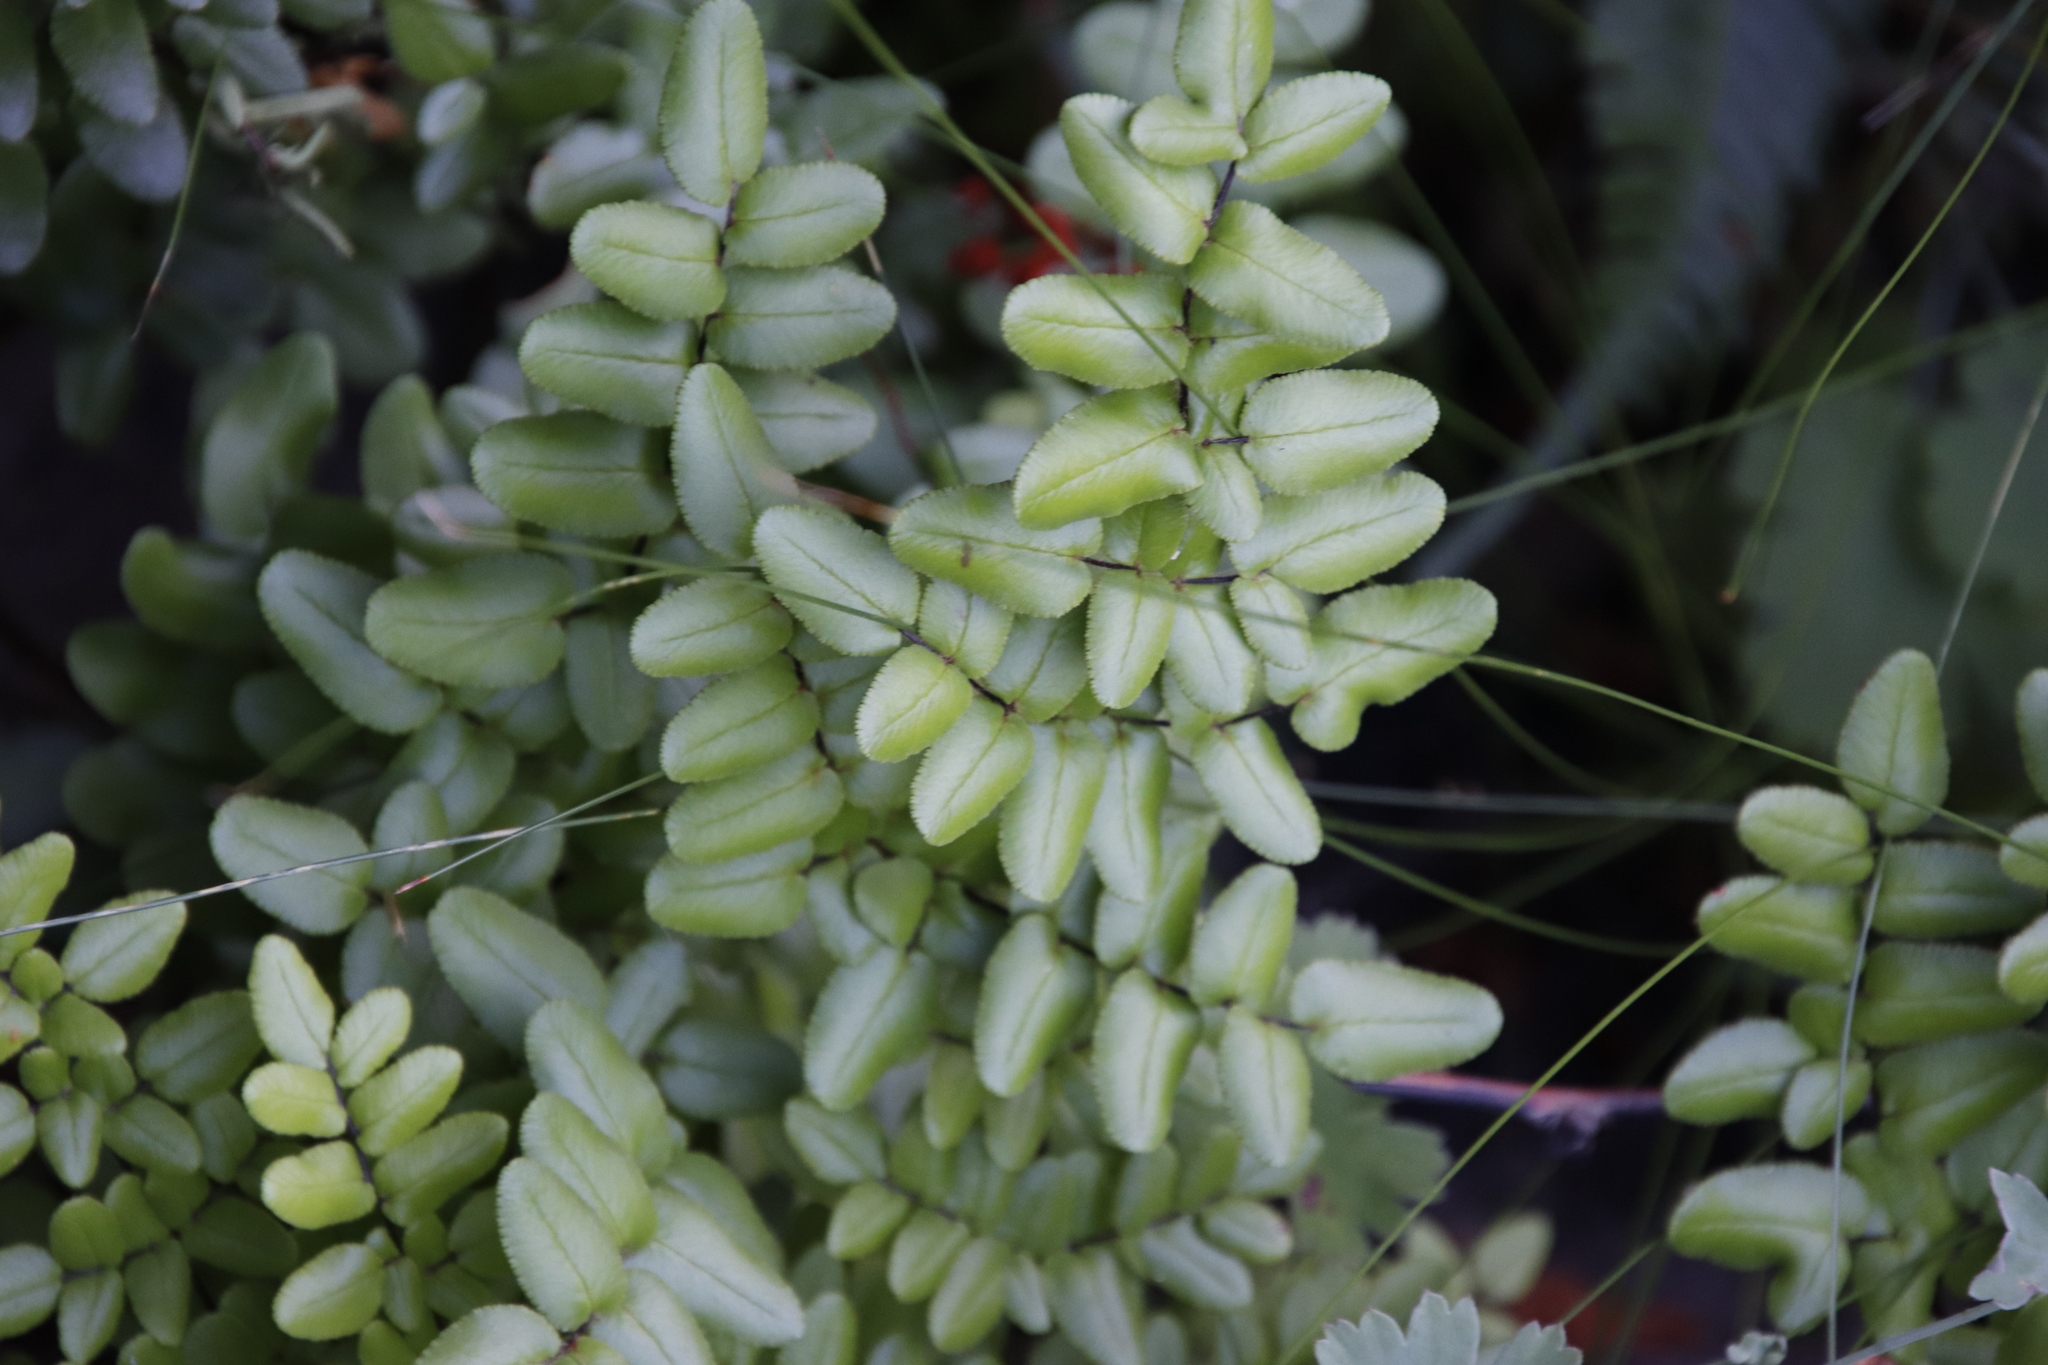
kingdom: Plantae
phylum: Tracheophyta
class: Polypodiopsida
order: Polypodiales
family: Pteridaceae
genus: Pellaea
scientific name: Pellaea pteroides
